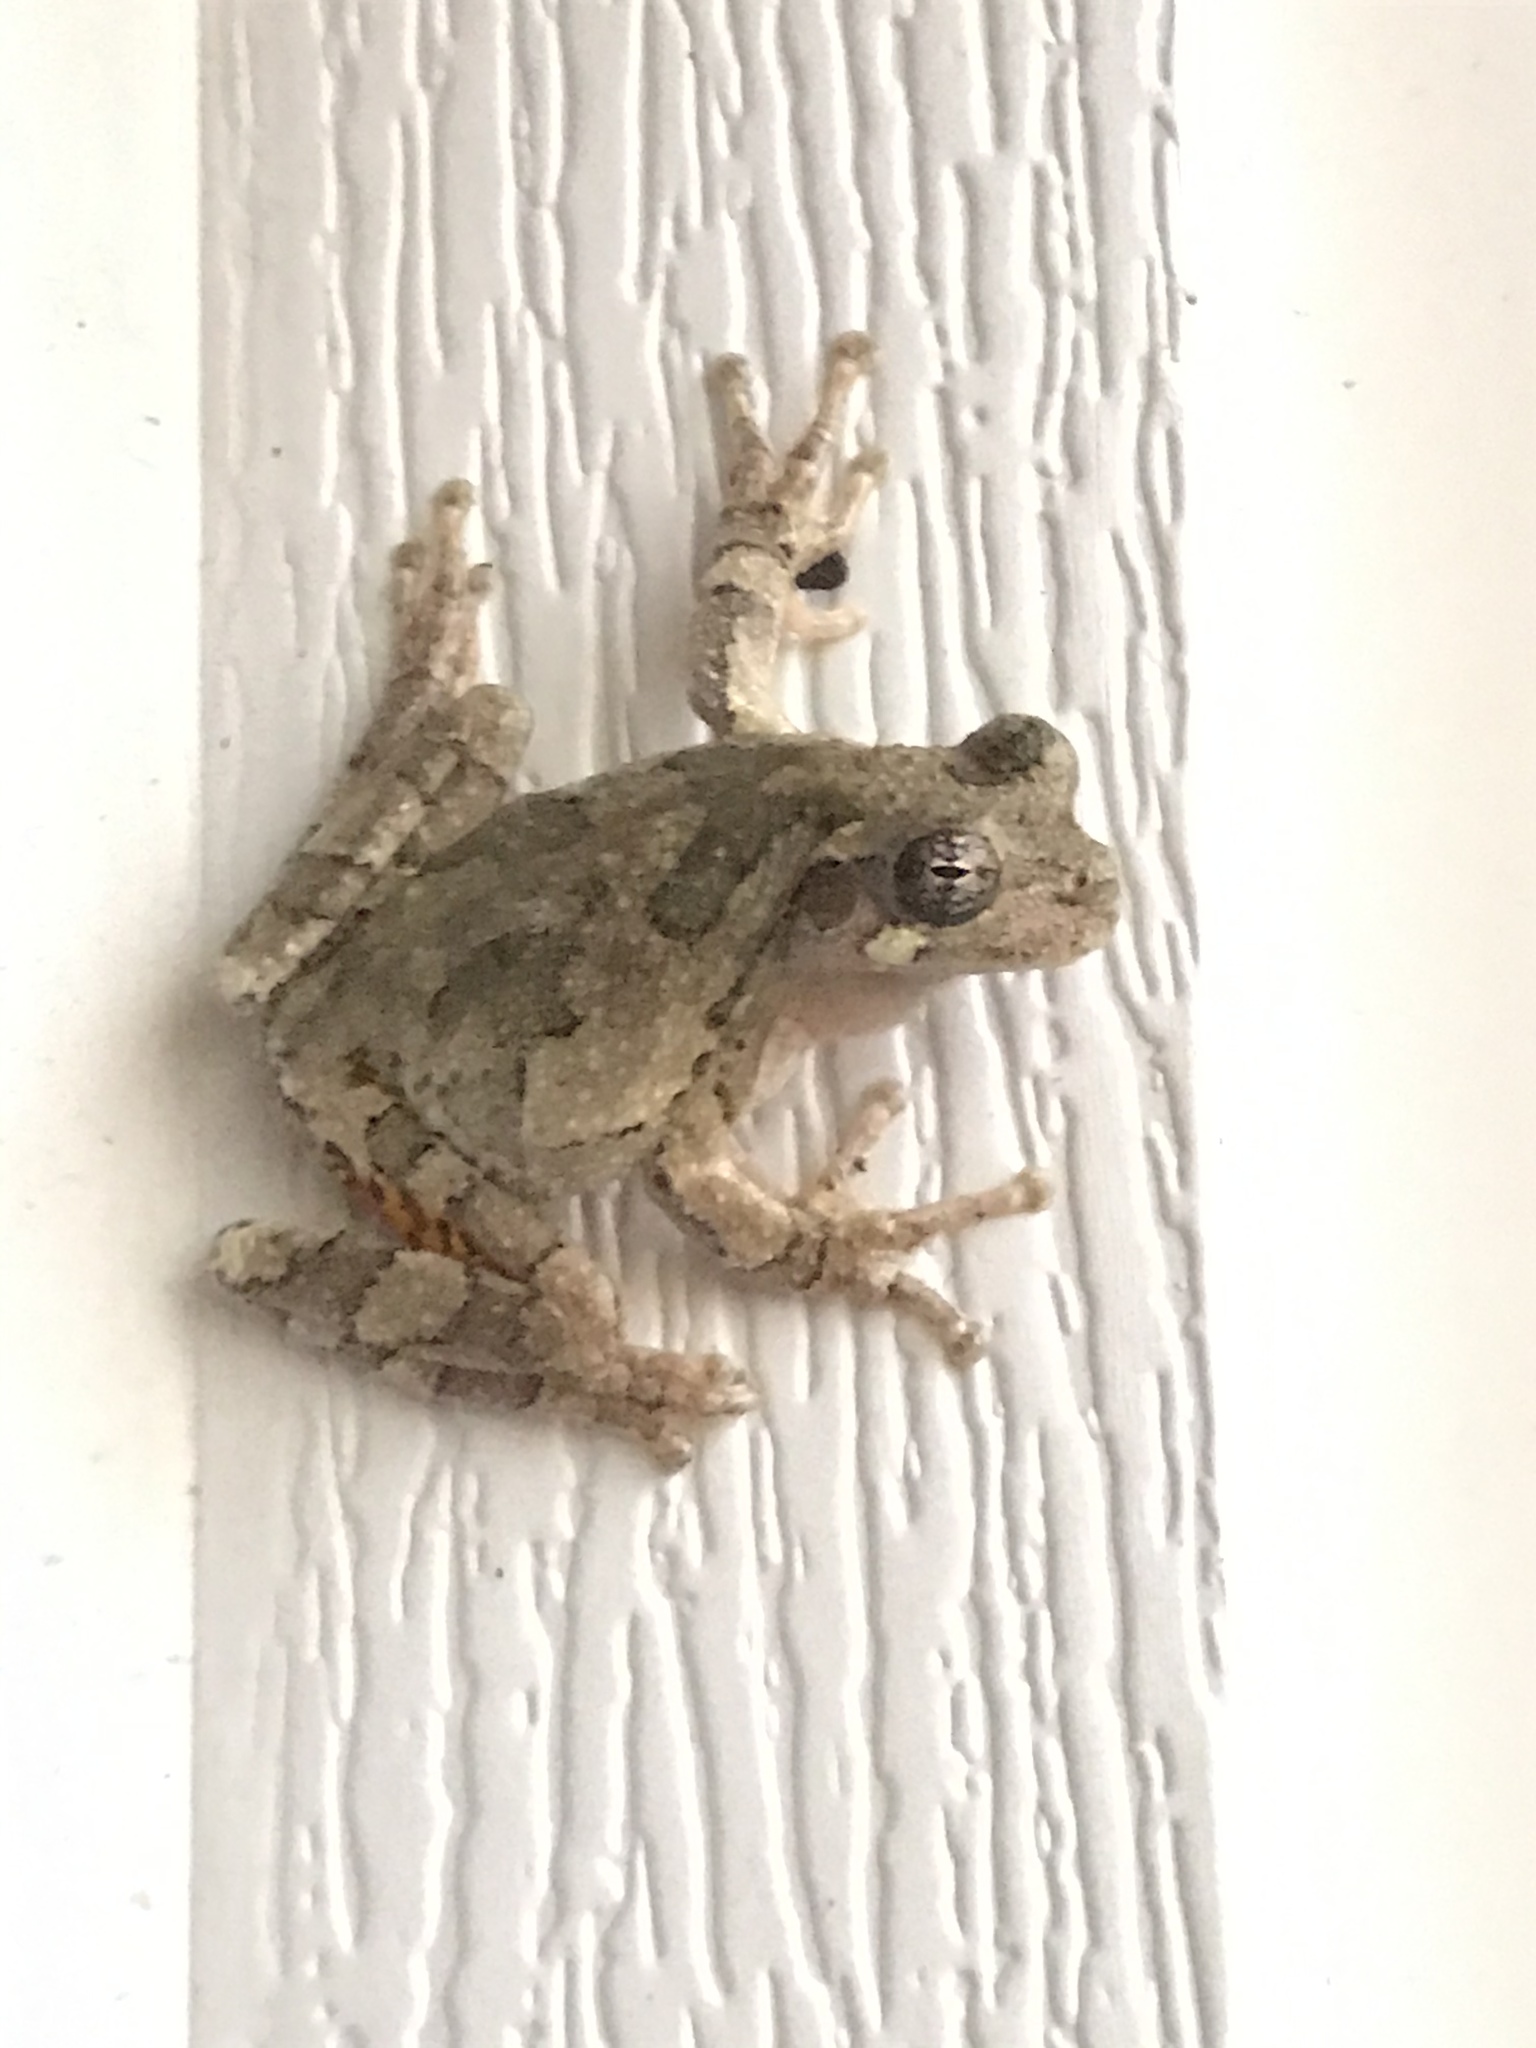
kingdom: Animalia
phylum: Chordata
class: Amphibia
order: Anura
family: Hylidae
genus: Dryophytes
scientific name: Dryophytes chrysoscelis
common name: Cope's gray treefrog
